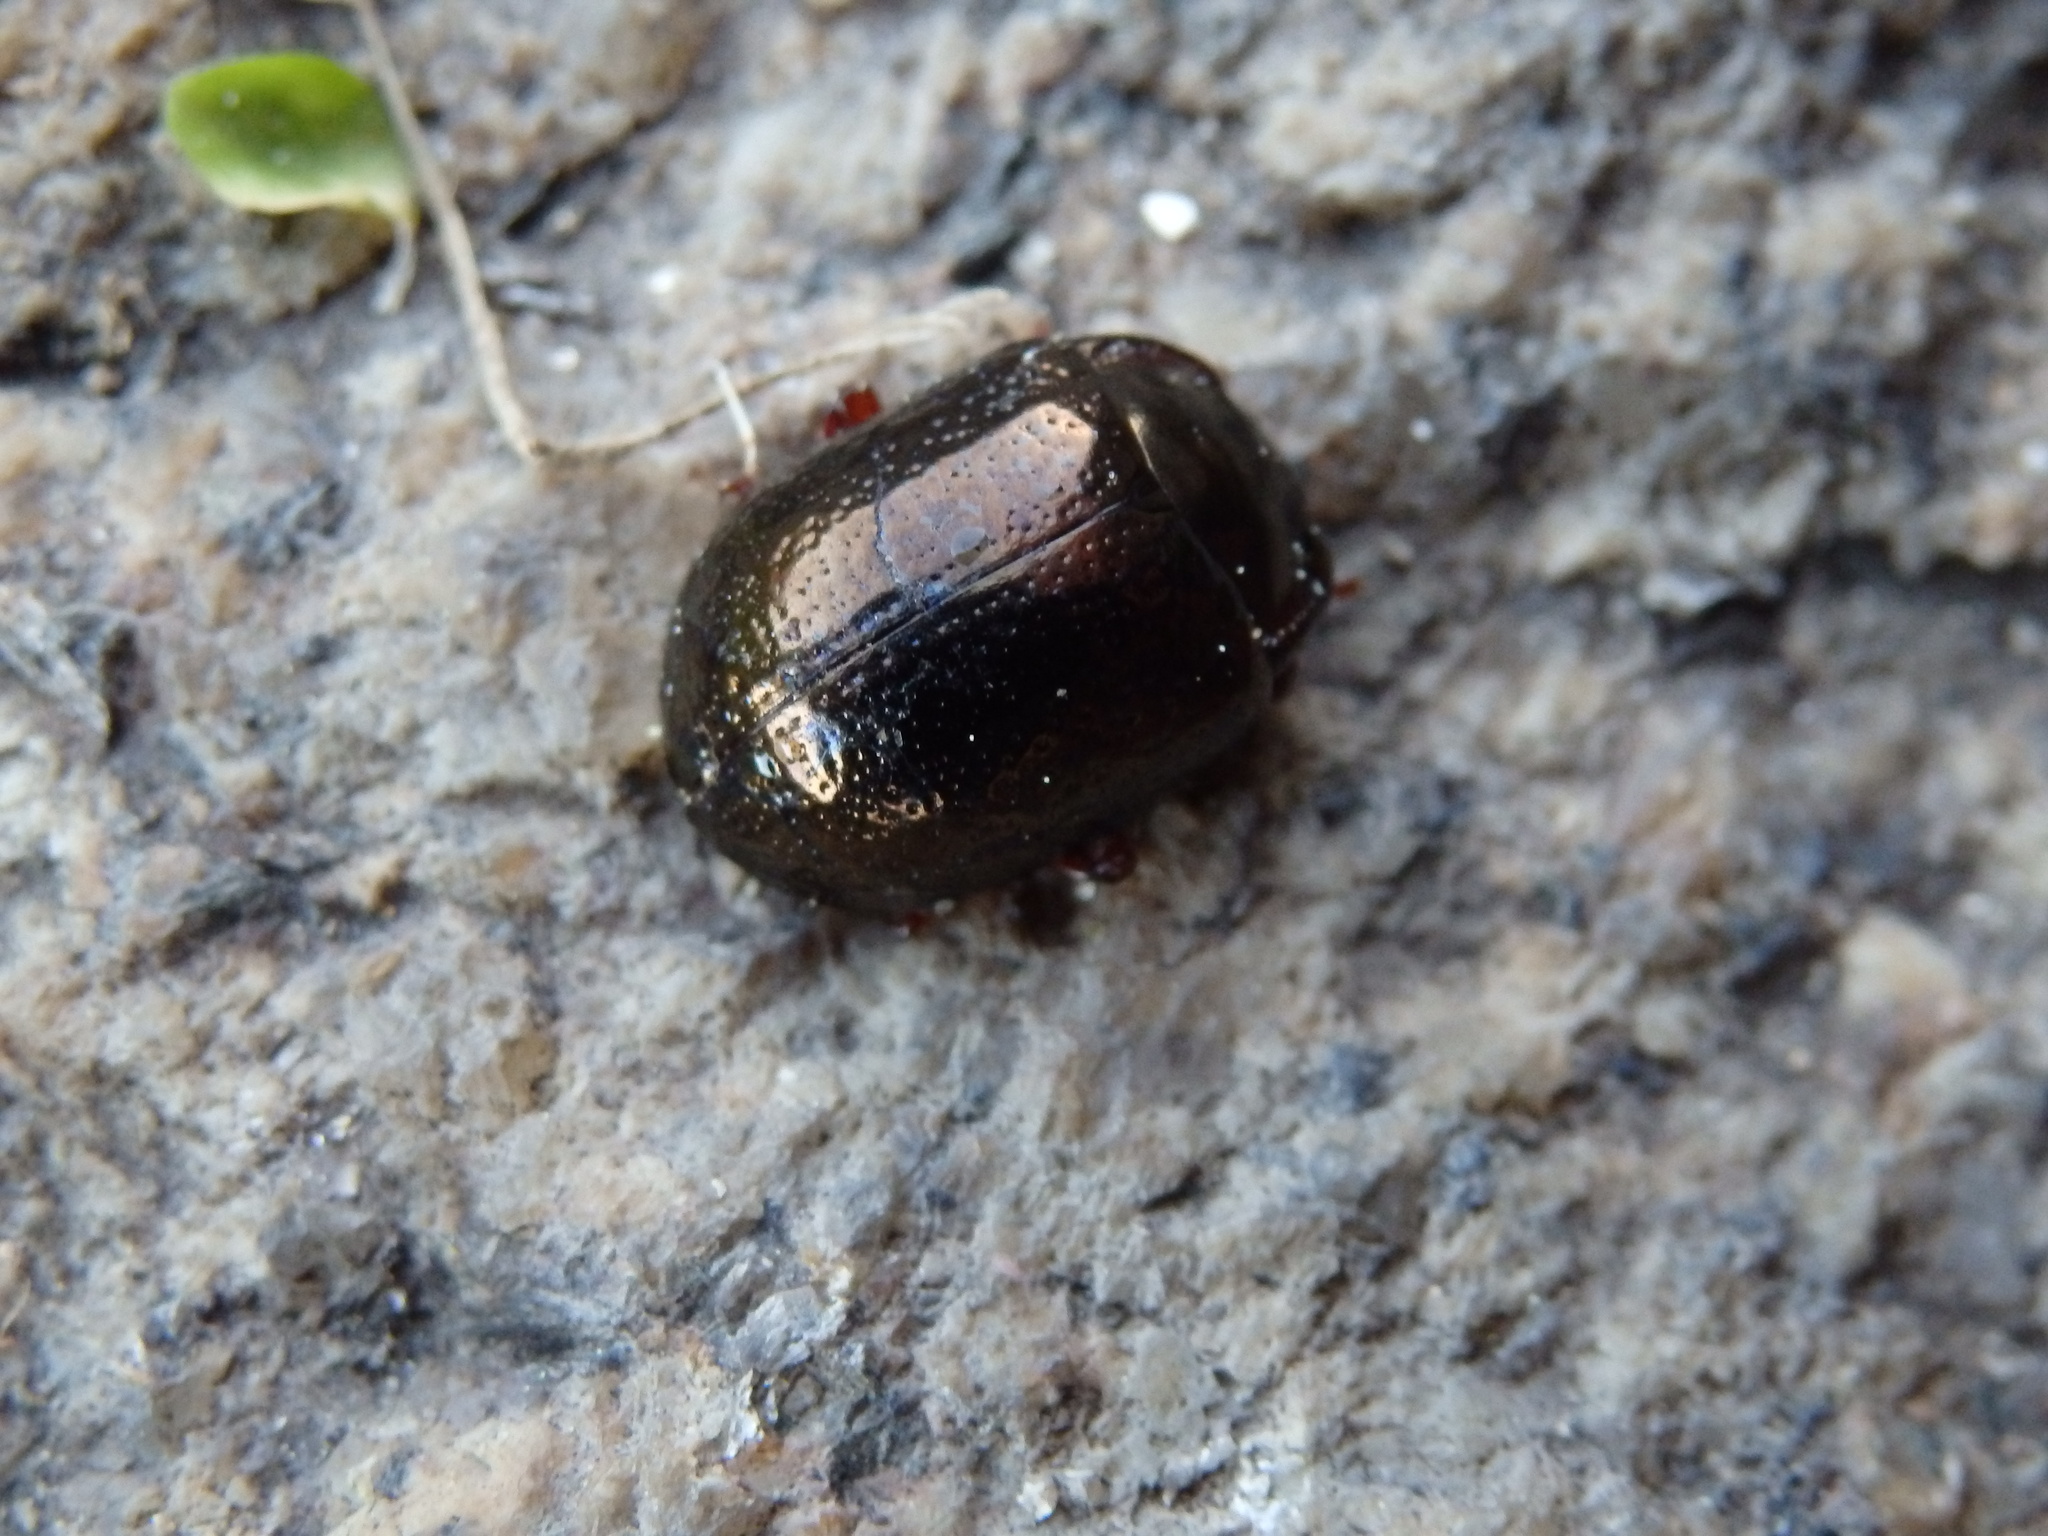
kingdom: Animalia
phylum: Arthropoda
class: Insecta
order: Coleoptera
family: Chrysomelidae
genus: Chrysolina
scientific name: Chrysolina bankii
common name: Leaf beetle
